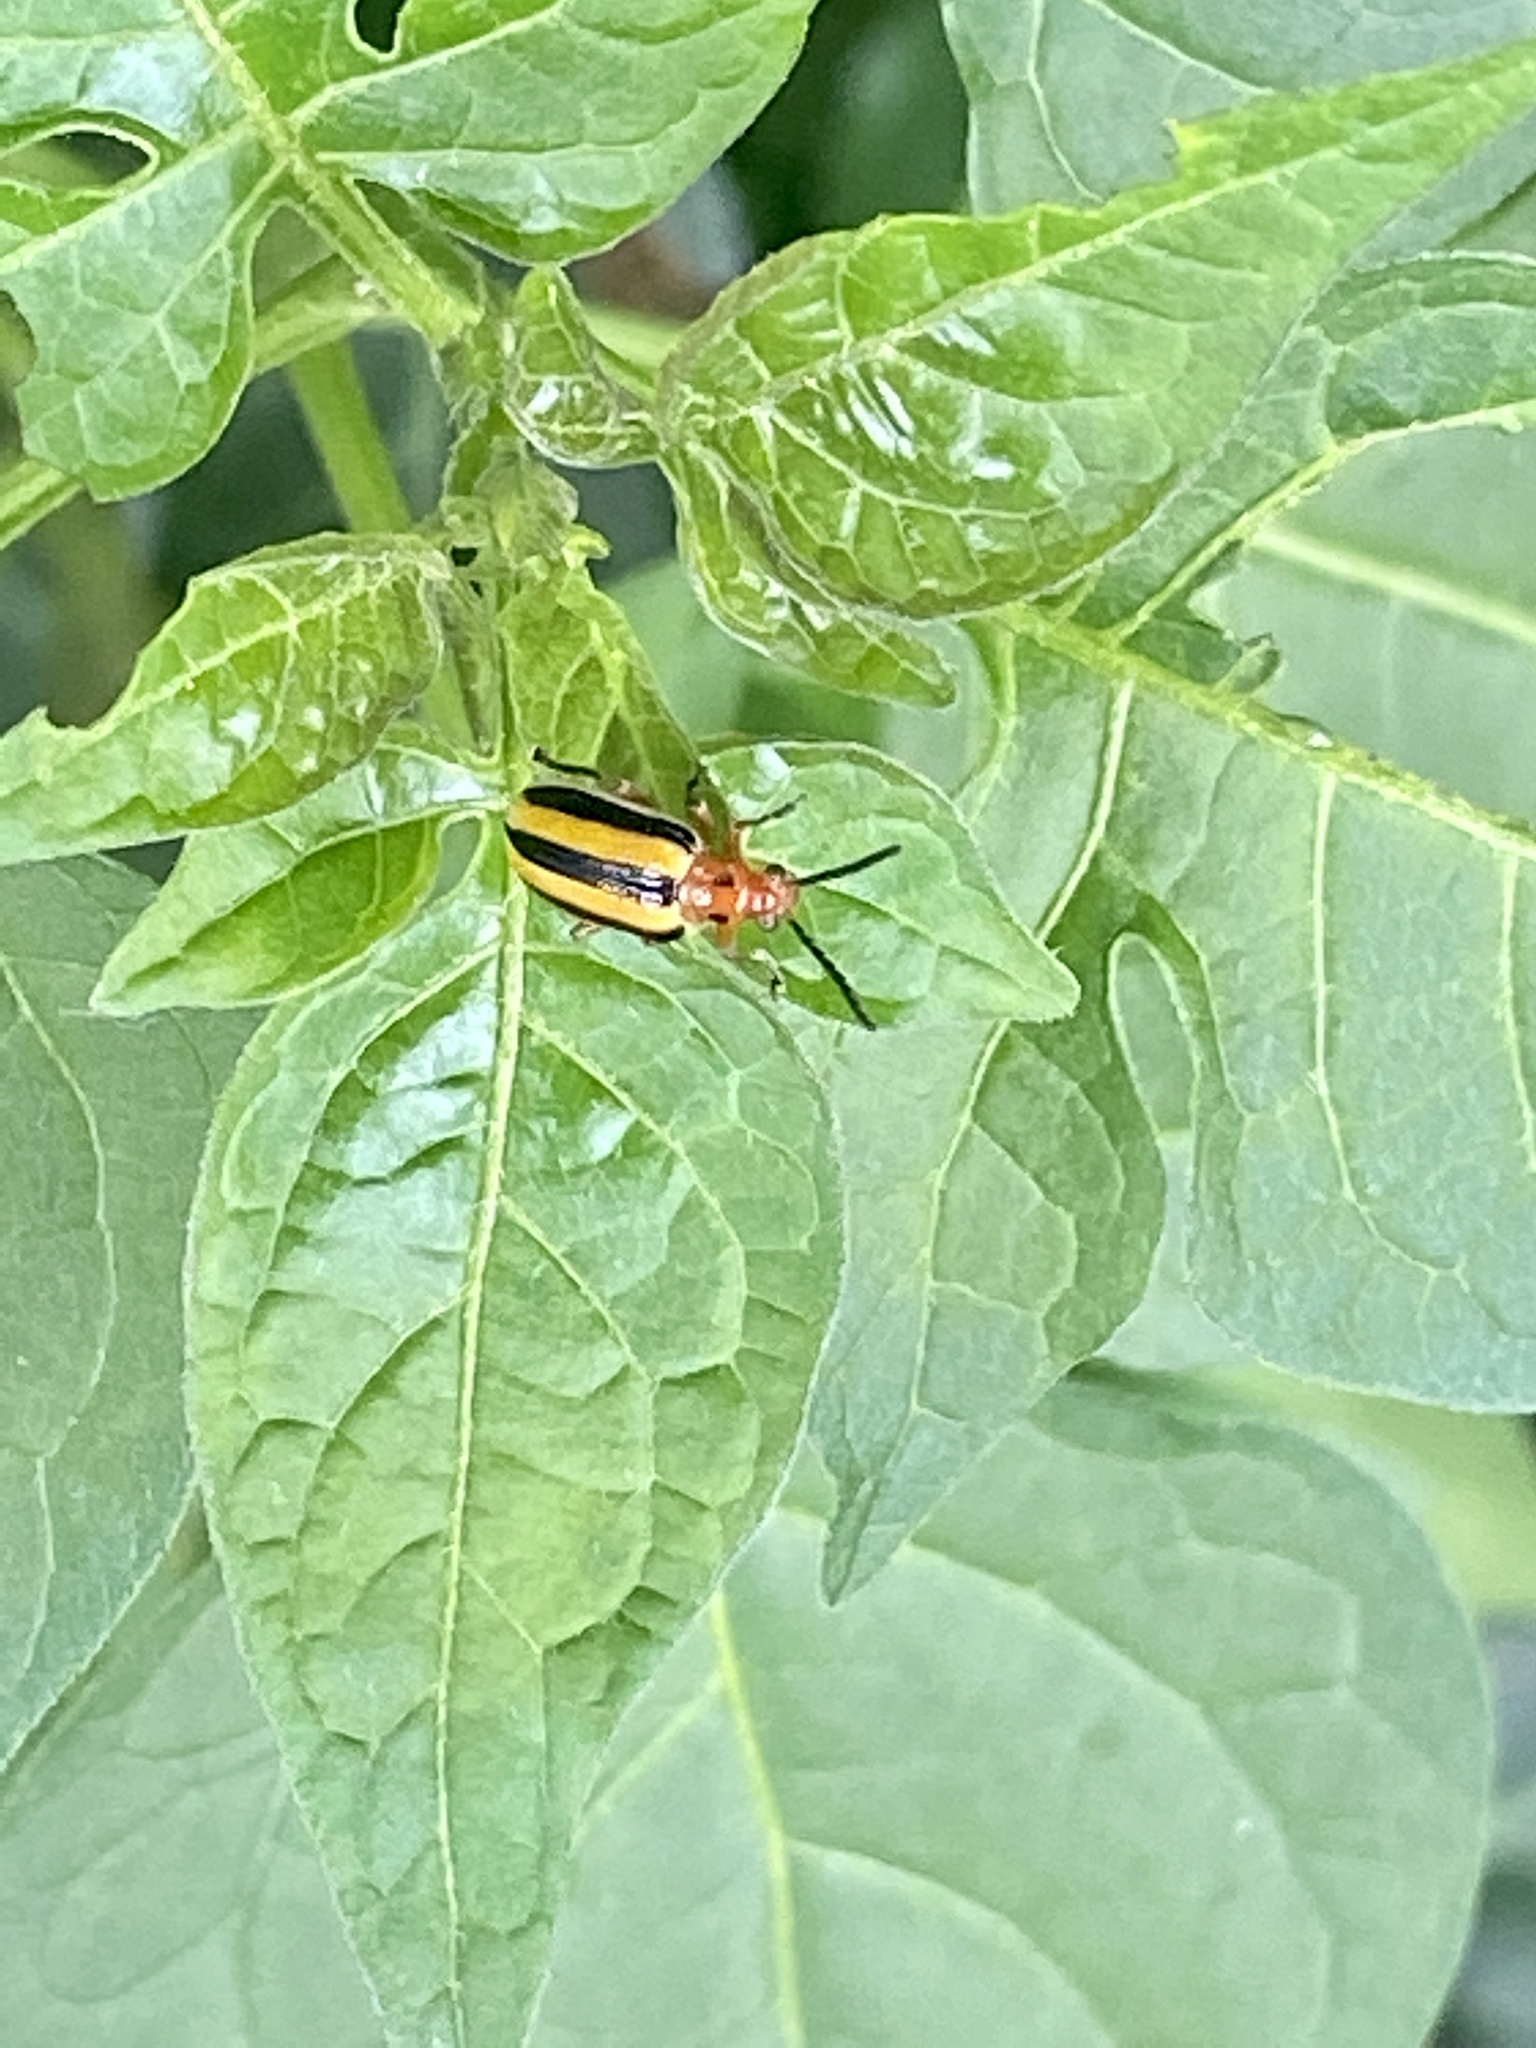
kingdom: Animalia
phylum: Arthropoda
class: Insecta
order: Coleoptera
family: Chrysomelidae
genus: Lema
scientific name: Lema daturaphila
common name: Leaf beetle
